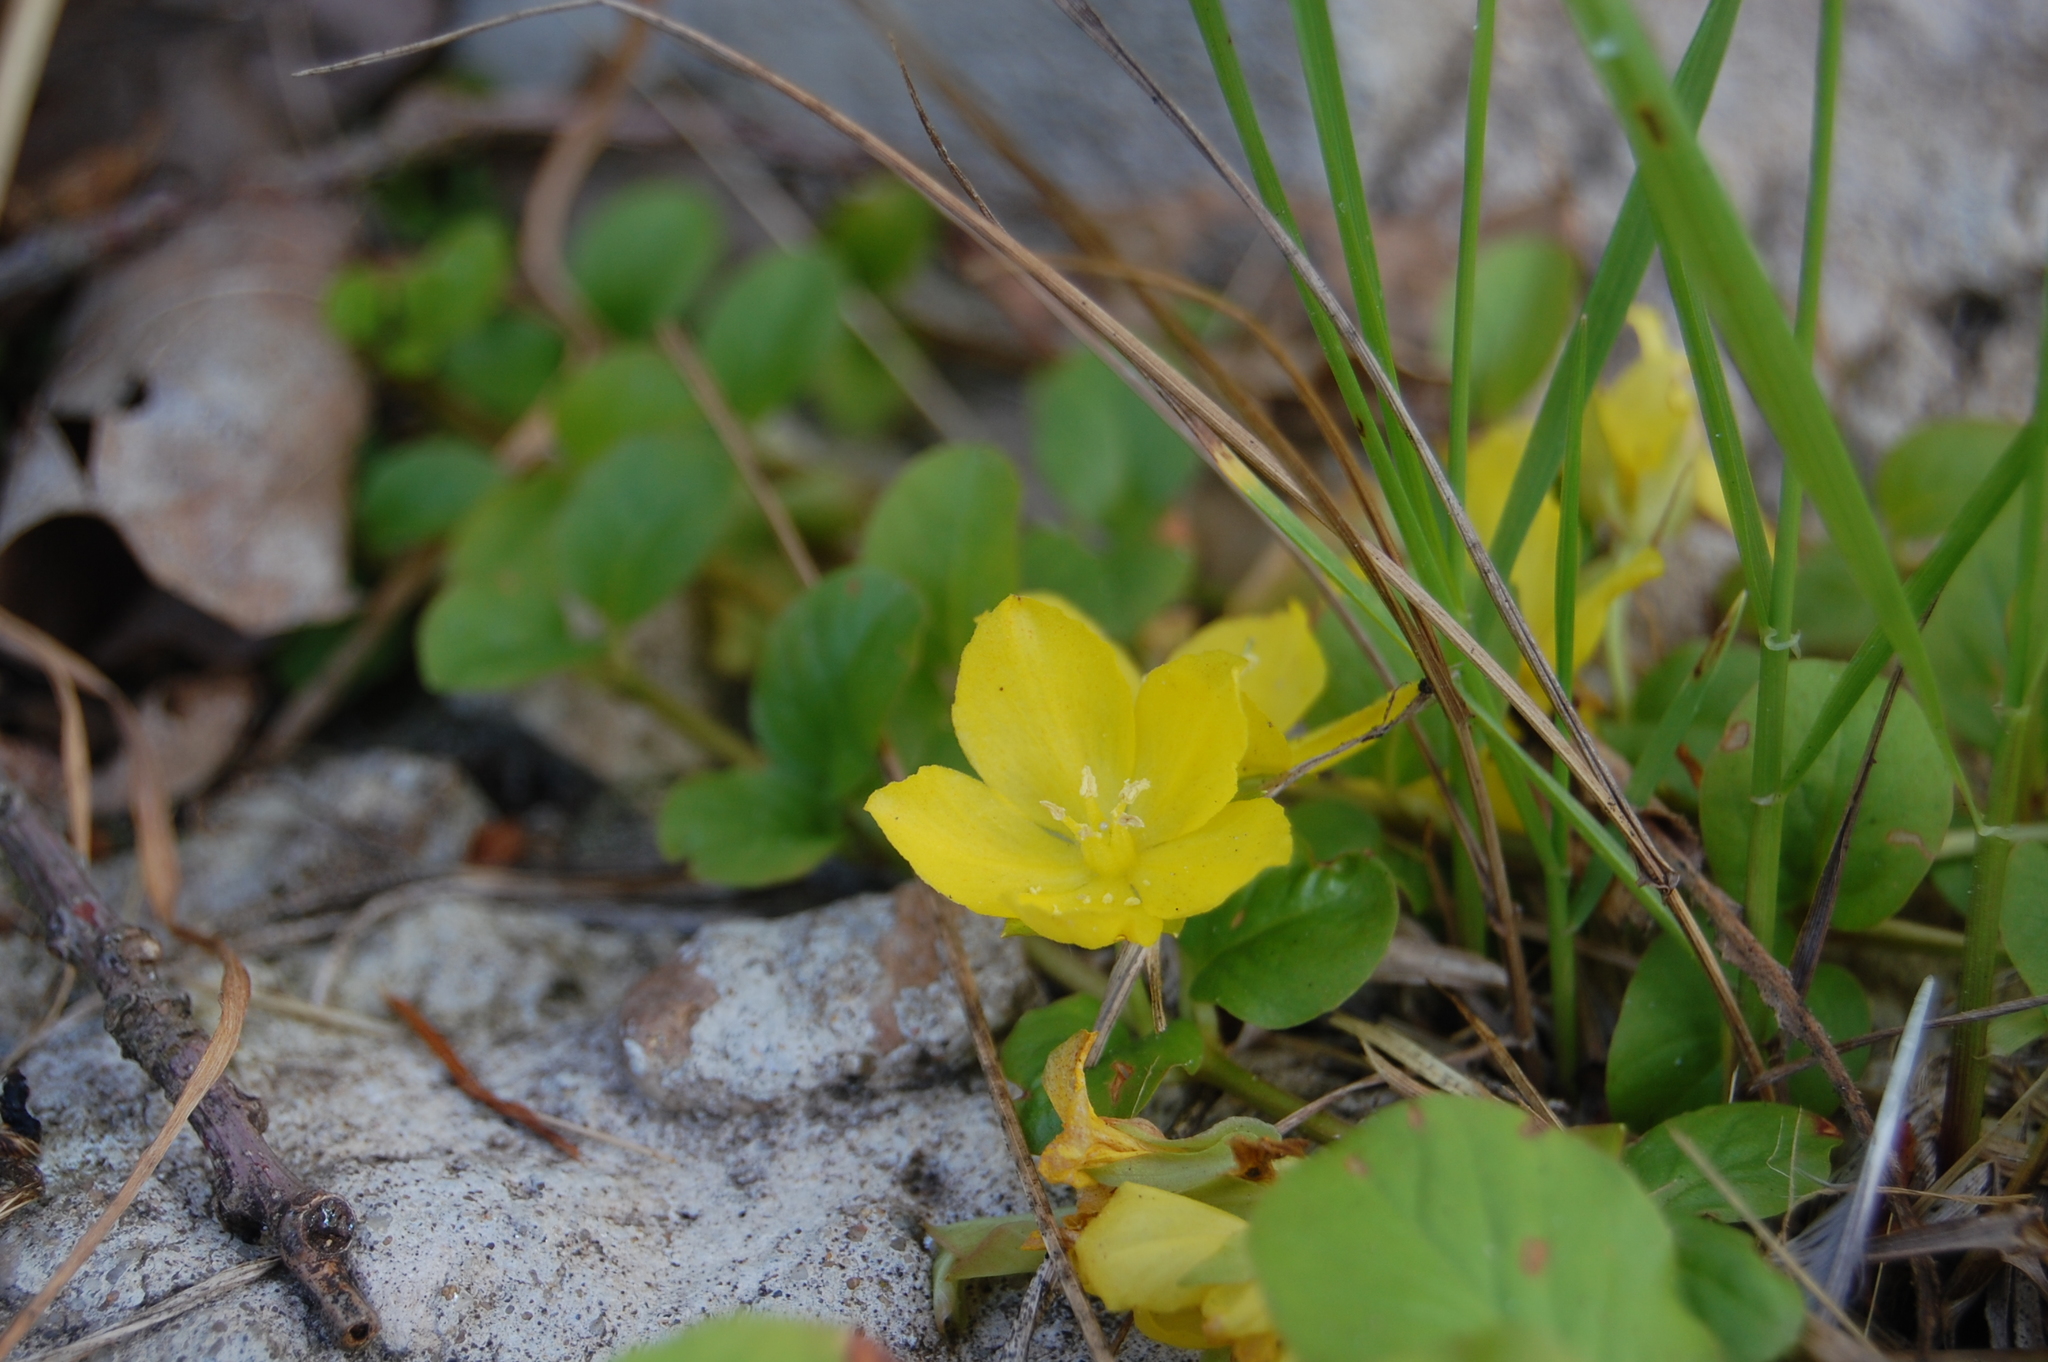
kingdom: Plantae
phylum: Tracheophyta
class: Magnoliopsida
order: Ericales
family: Primulaceae
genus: Lysimachia
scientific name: Lysimachia nummularia
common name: Moneywort
